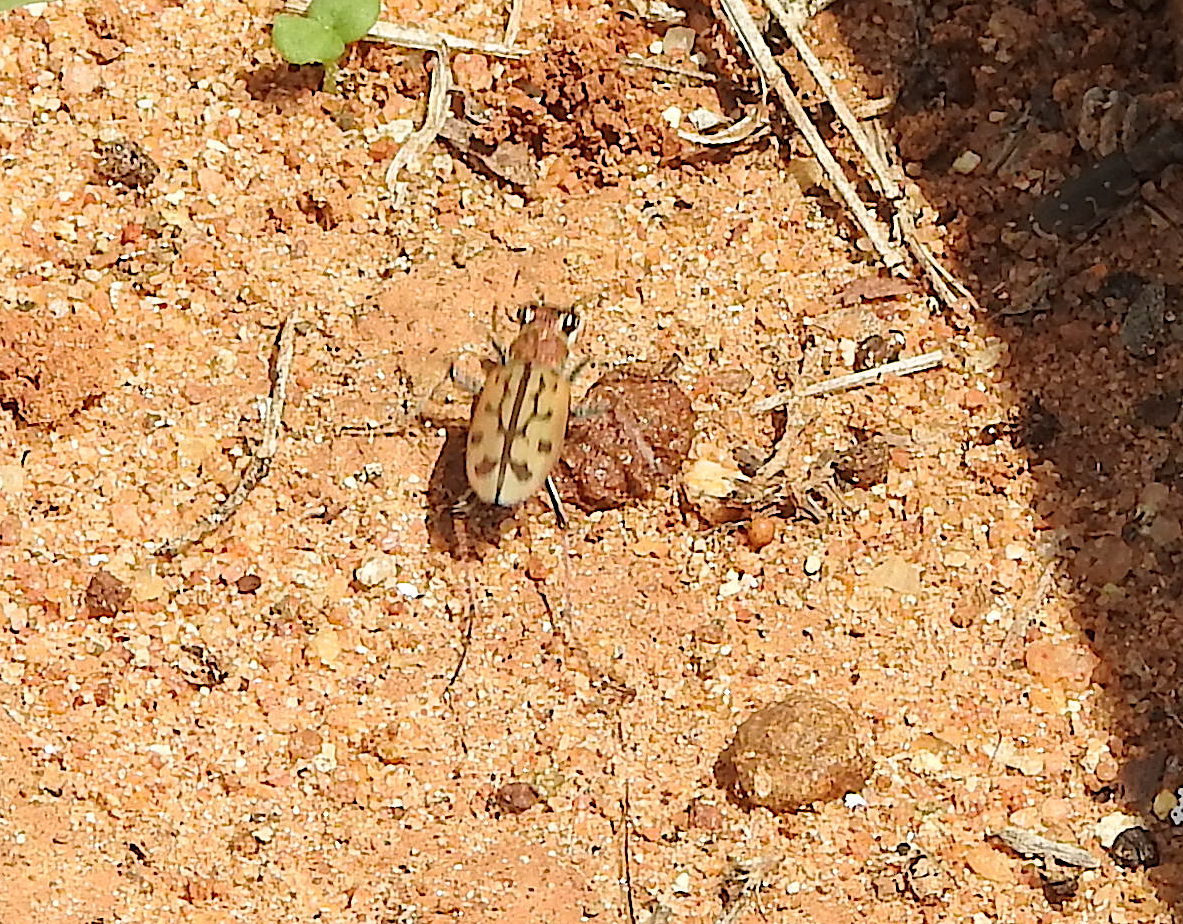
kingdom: Animalia
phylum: Arthropoda
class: Insecta
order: Coleoptera
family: Carabidae
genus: Lophyra
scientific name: Lophyra catena
